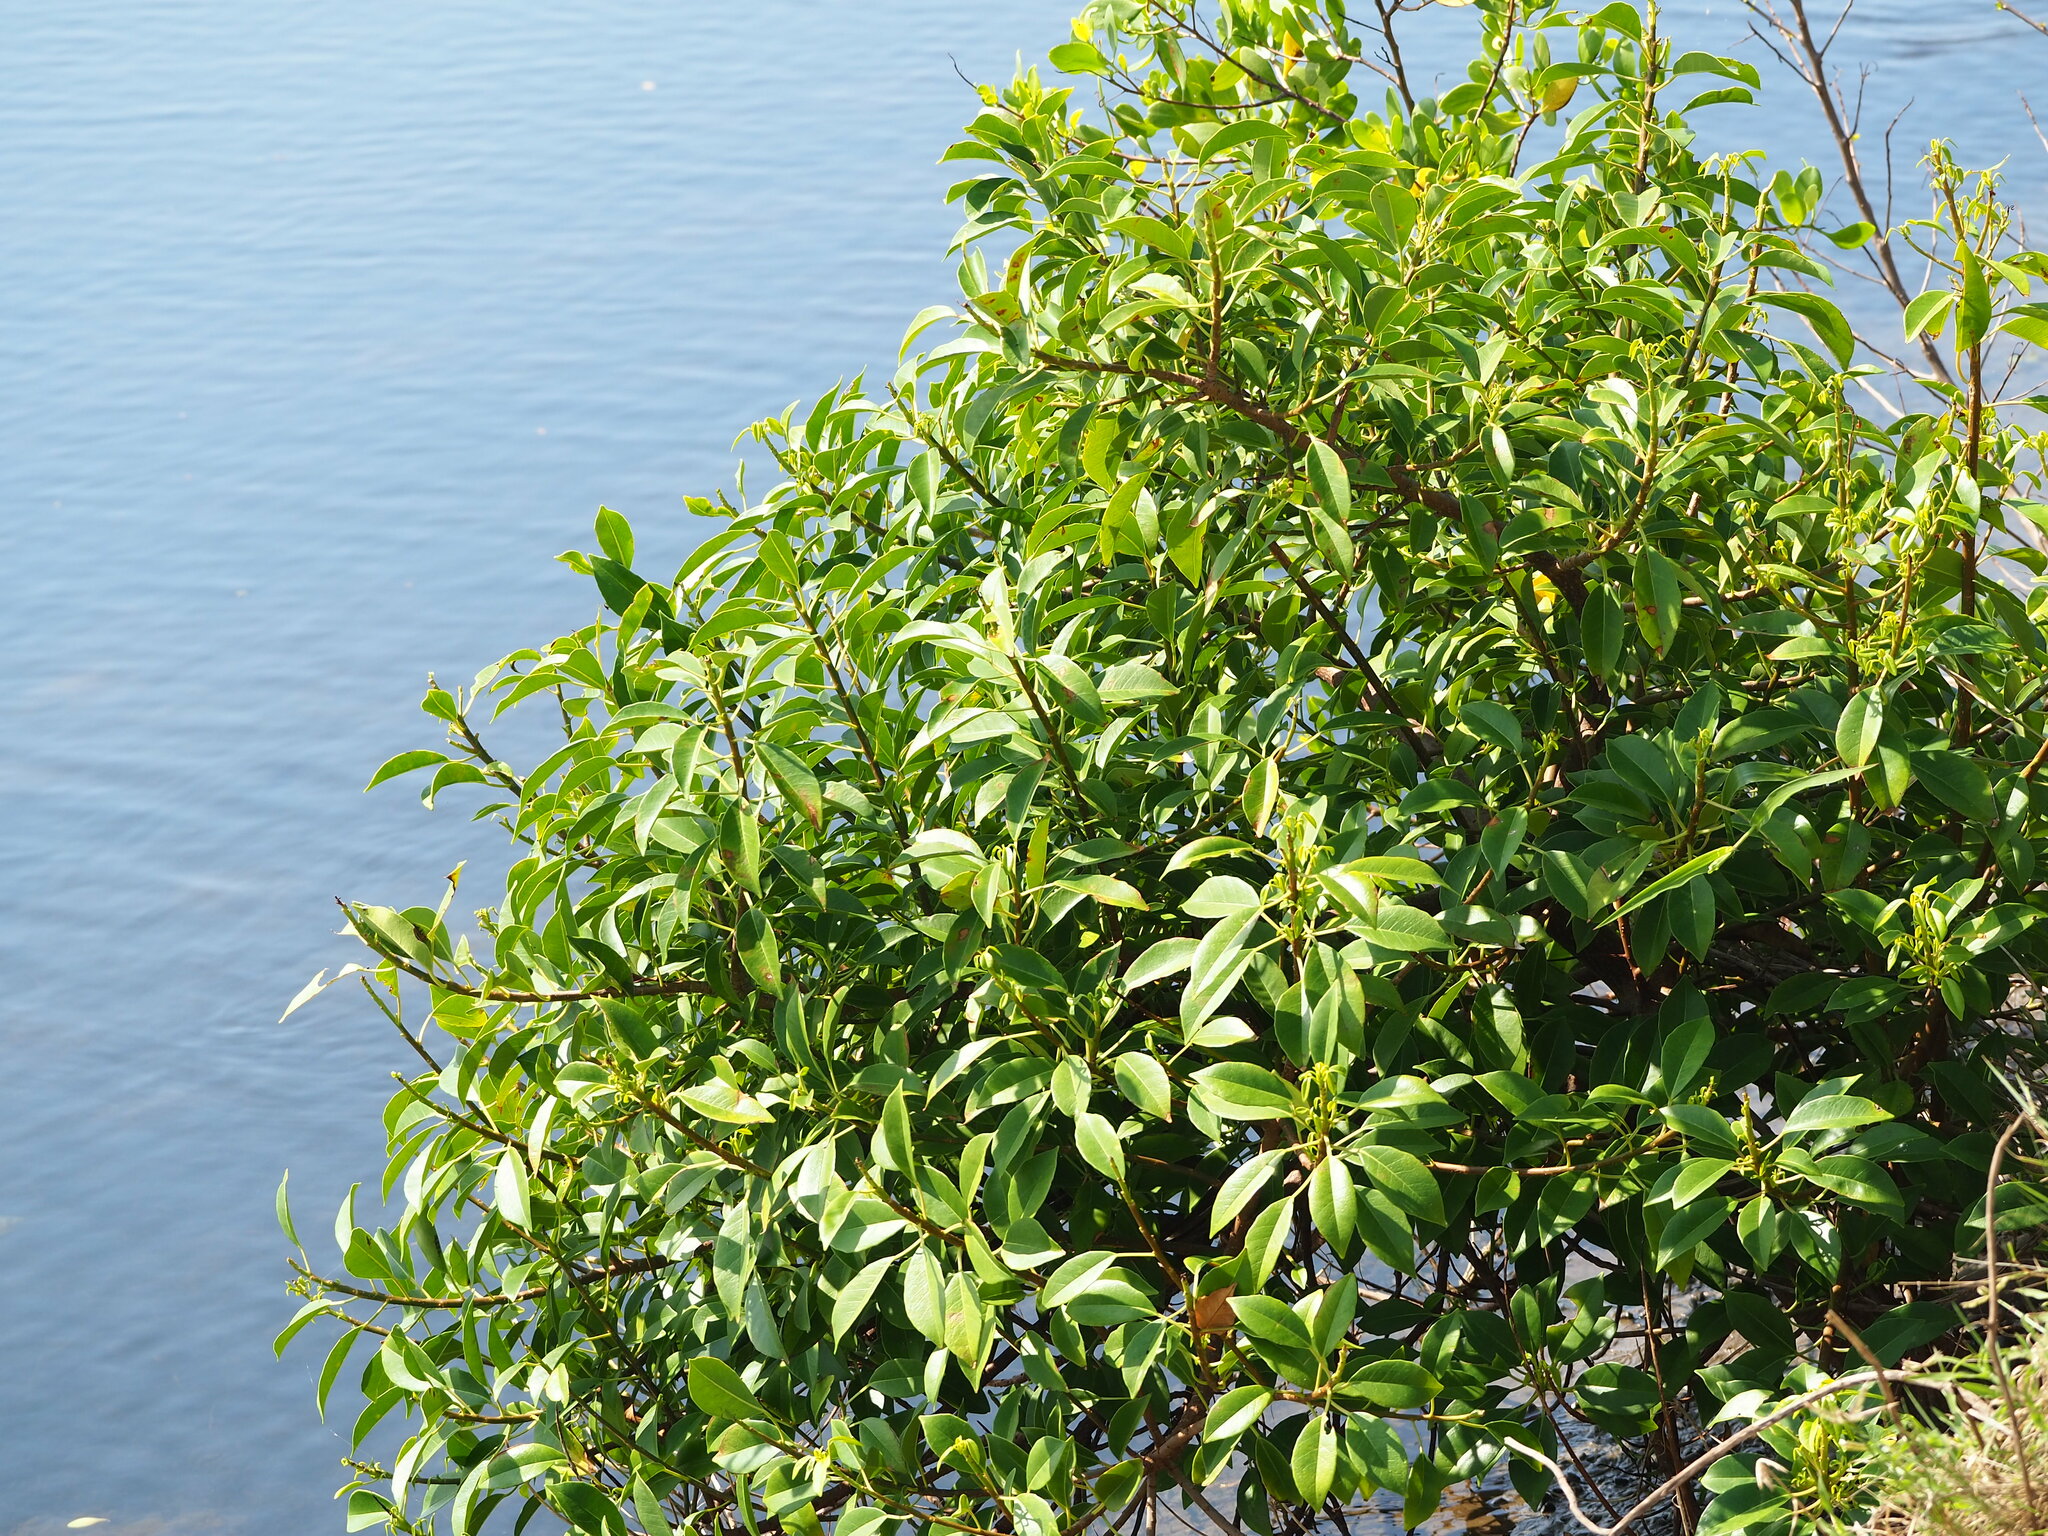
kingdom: Plantae
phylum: Tracheophyta
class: Magnoliopsida
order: Malpighiales
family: Euphorbiaceae
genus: Excoecaria
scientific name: Excoecaria agallocha
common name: River poisontree
